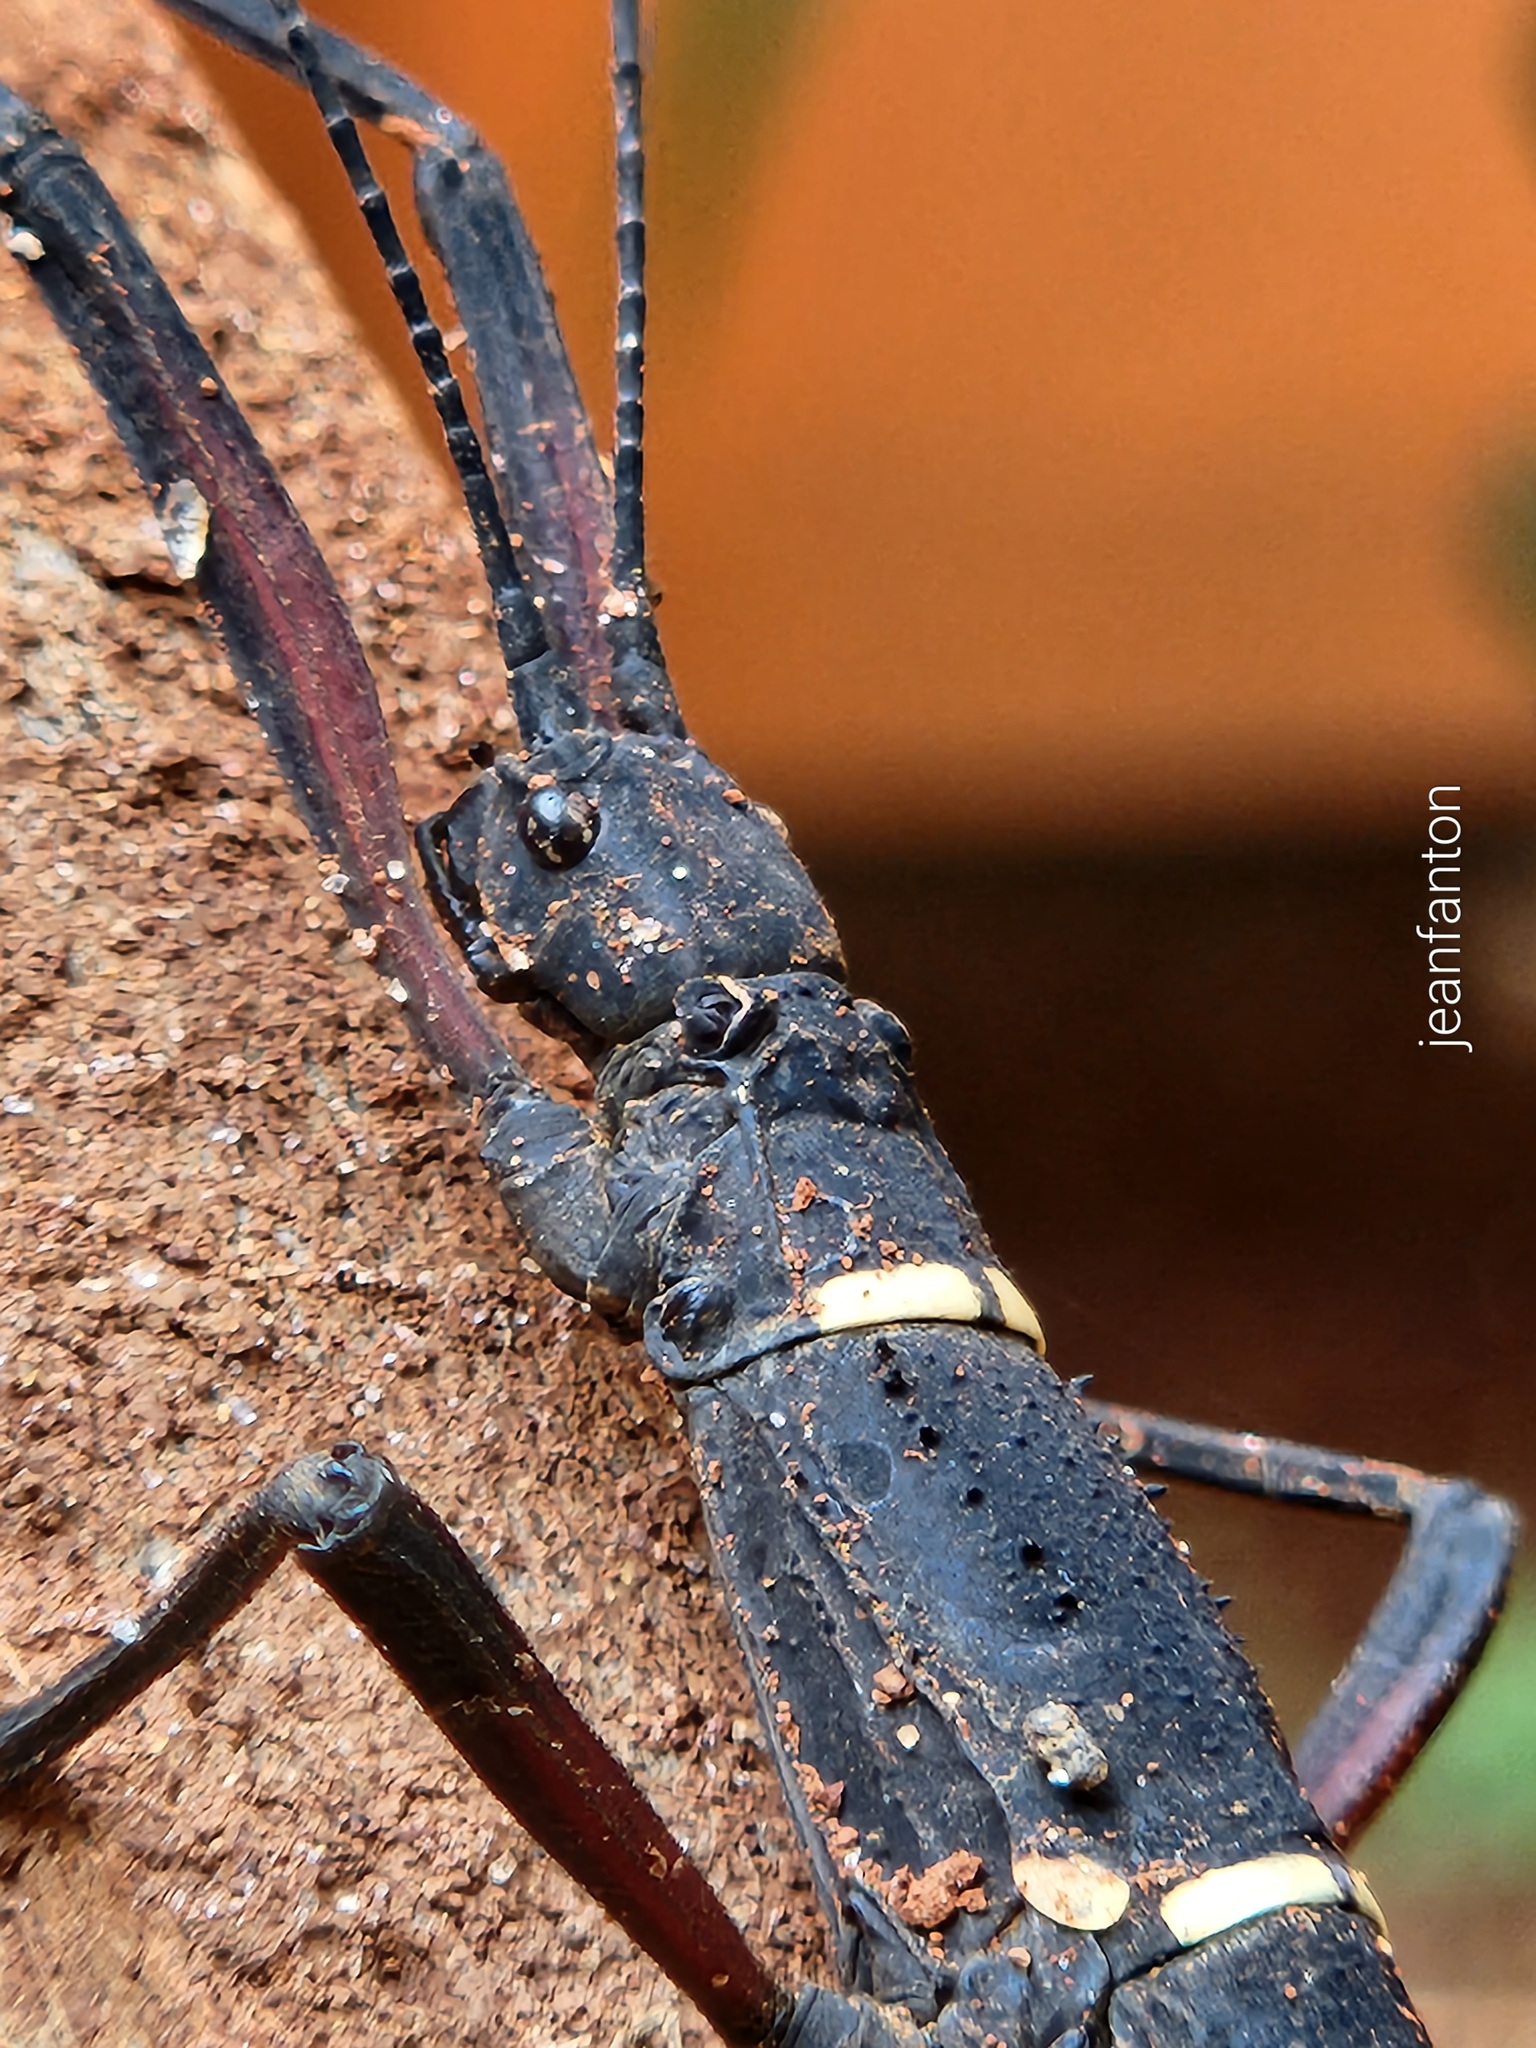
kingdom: Animalia
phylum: Arthropoda
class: Insecta
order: Phasmida
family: Pseudophasmatidae
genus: Urucumania
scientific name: Urucumania borellii
